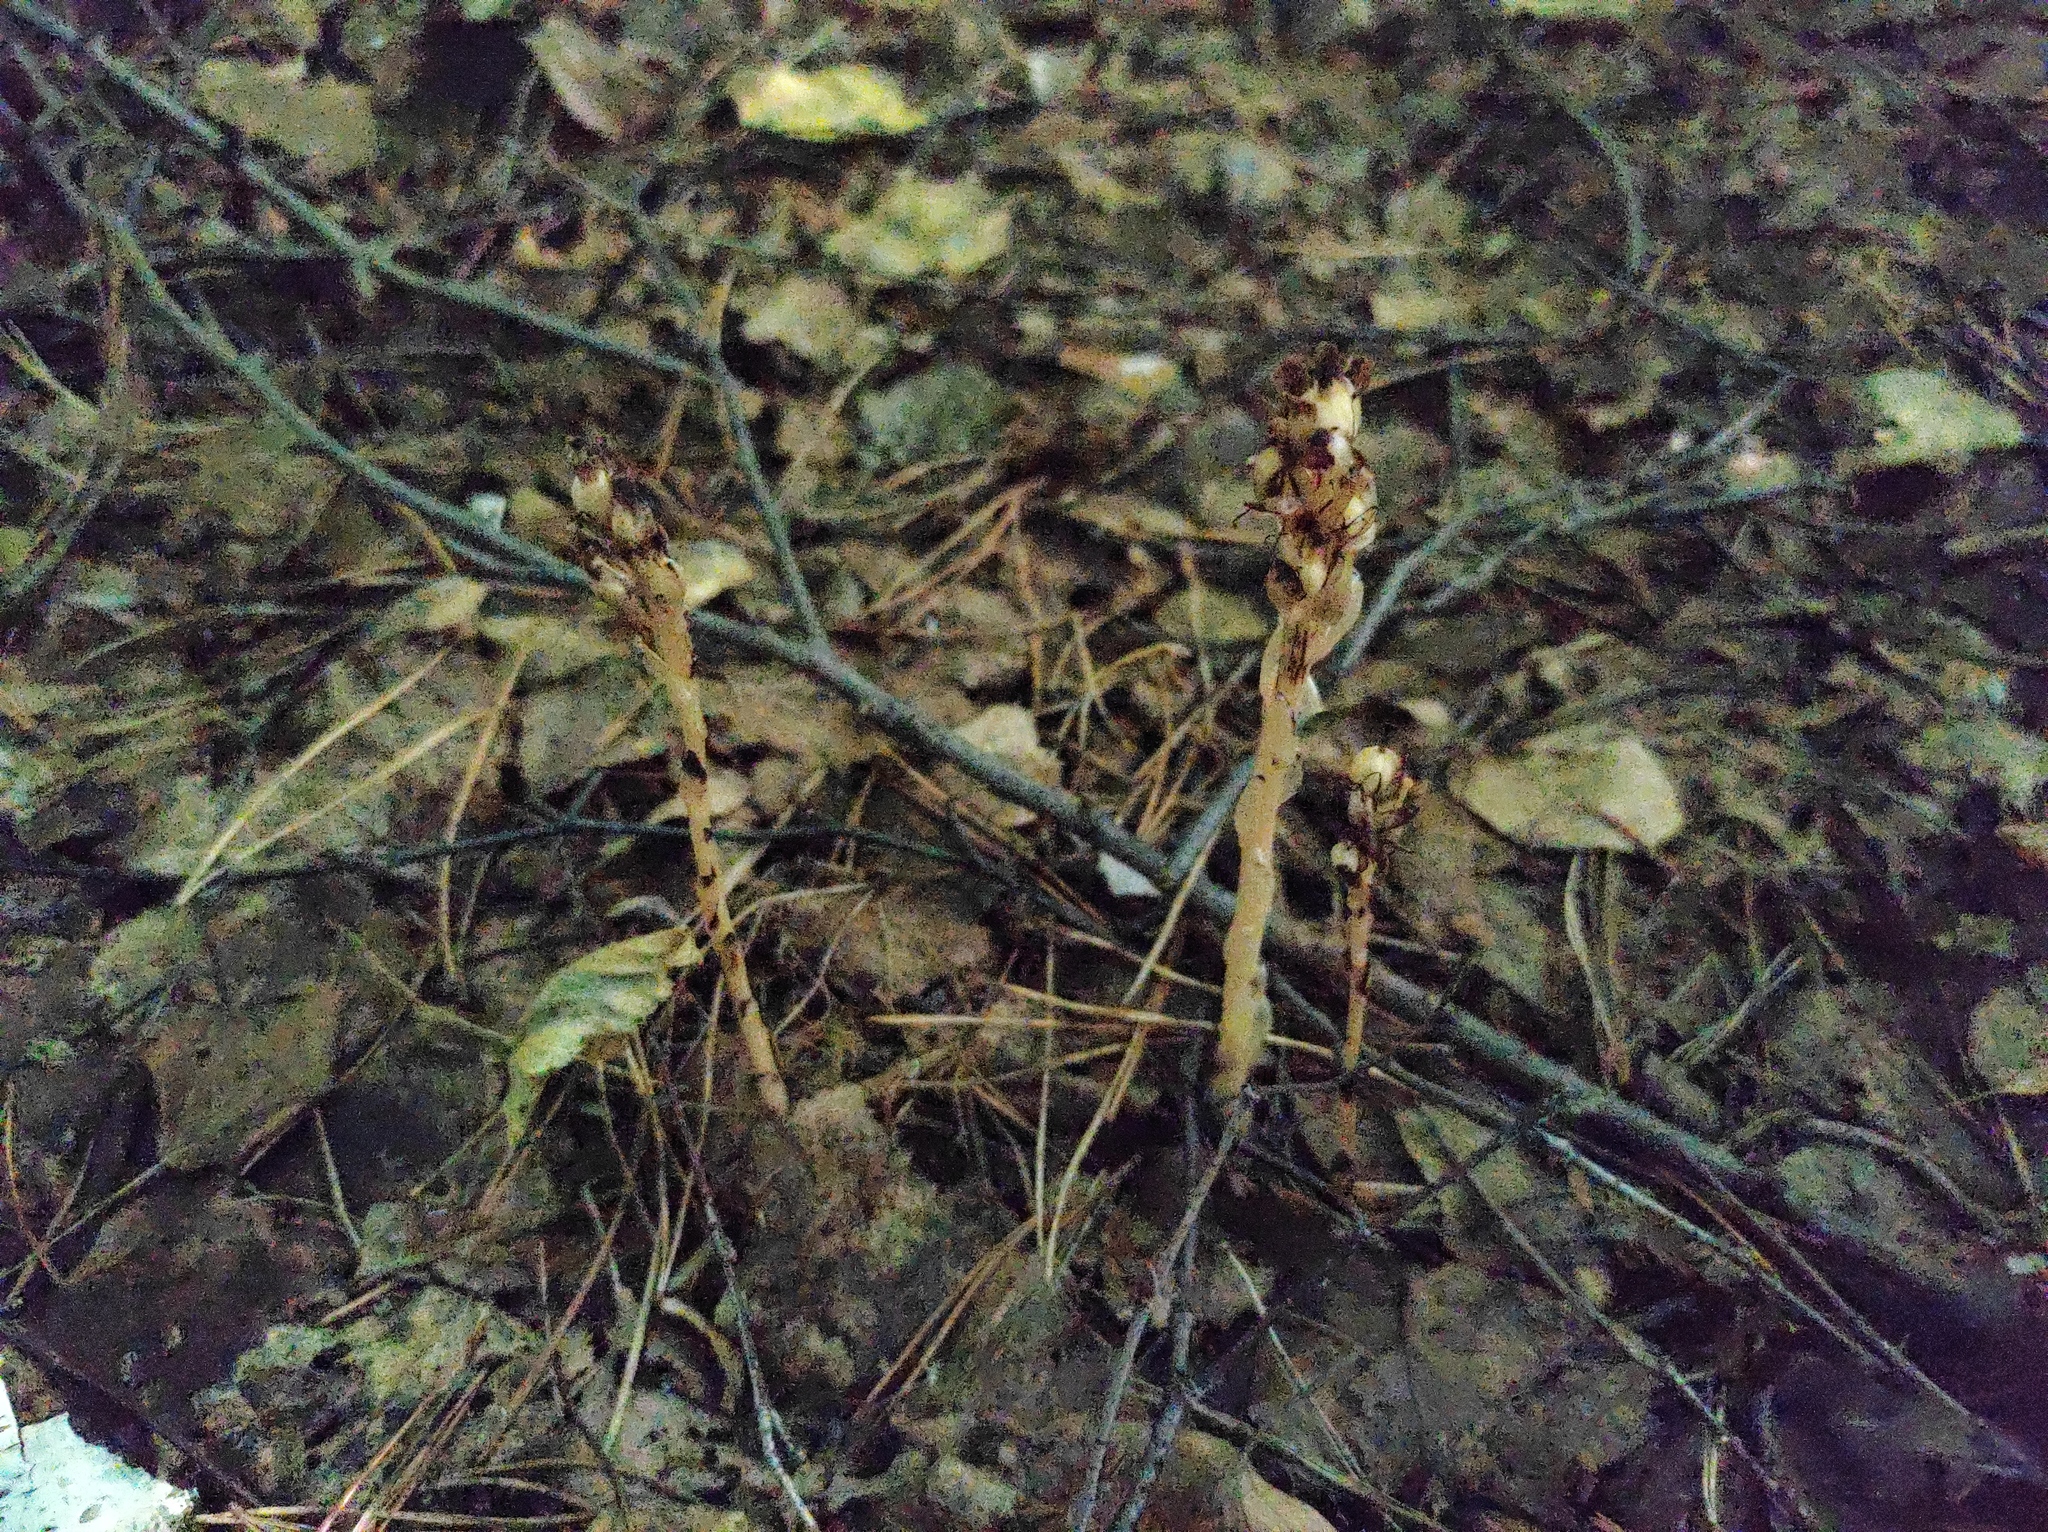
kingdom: Plantae
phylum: Tracheophyta
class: Magnoliopsida
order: Ericales
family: Ericaceae
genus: Hypopitys
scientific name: Hypopitys monotropa
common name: Yellow bird's-nest
